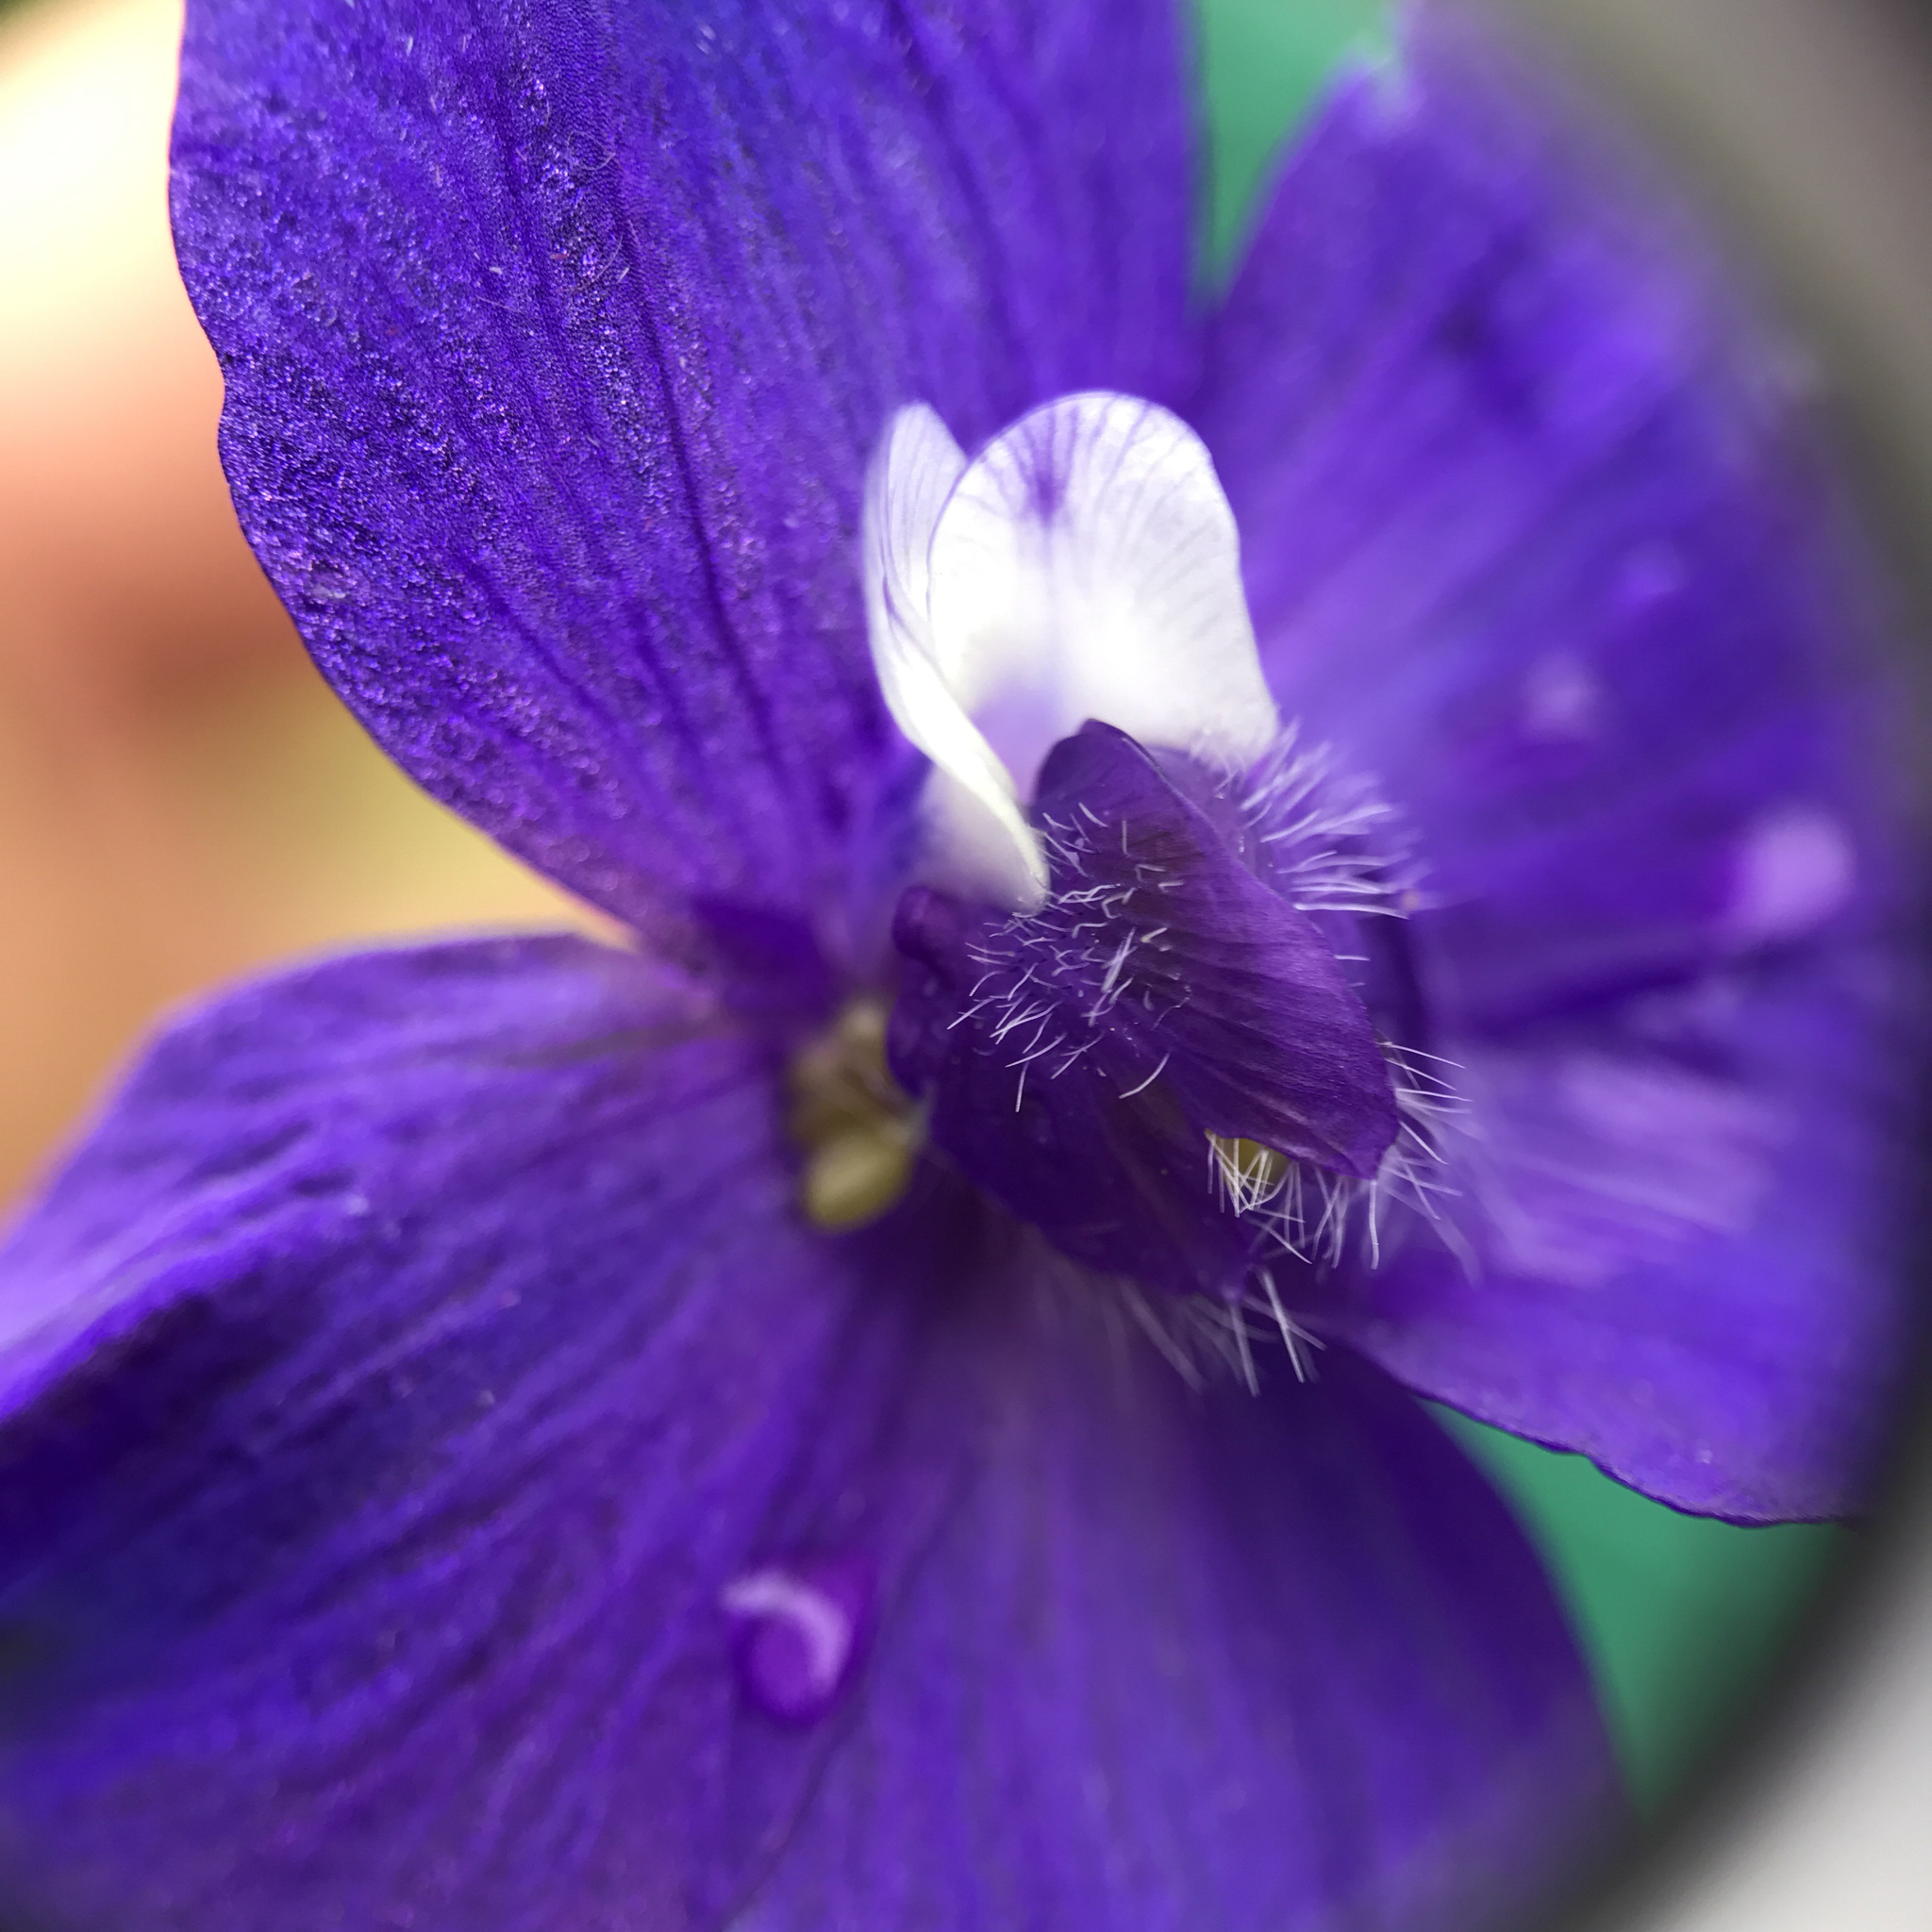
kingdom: Plantae
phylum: Tracheophyta
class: Magnoliopsida
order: Ranunculales
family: Ranunculaceae
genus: Delphinium
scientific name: Delphinium variegatum
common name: Royal larkspur
